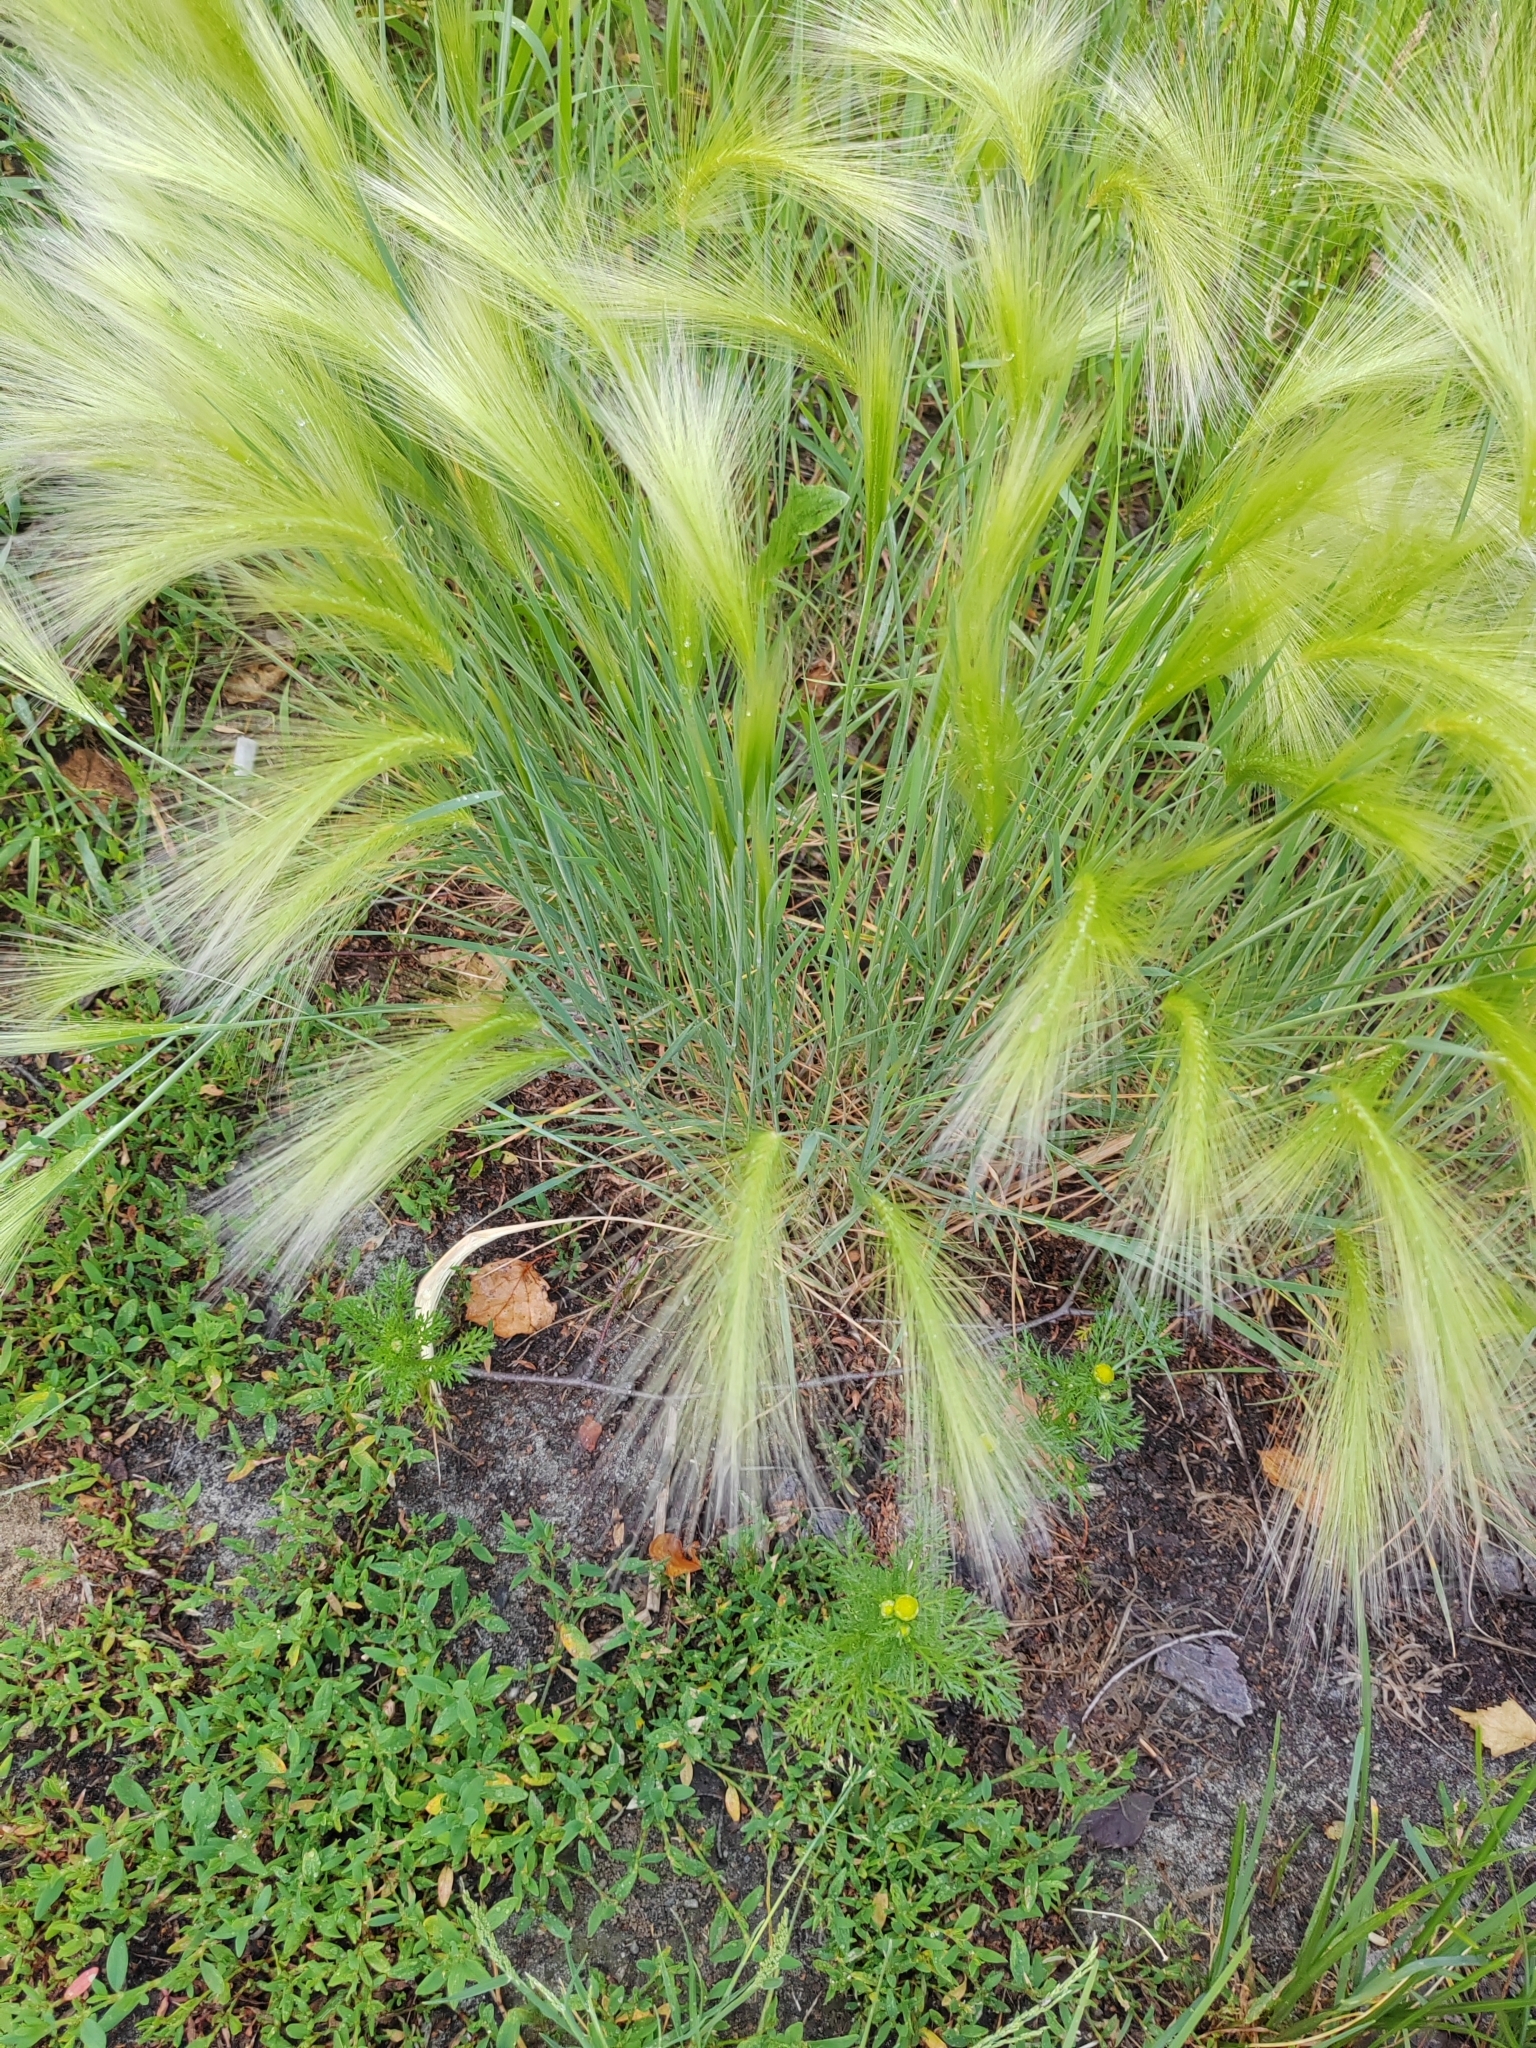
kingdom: Plantae
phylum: Tracheophyta
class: Liliopsida
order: Poales
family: Poaceae
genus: Hordeum
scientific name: Hordeum jubatum
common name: Foxtail barley
